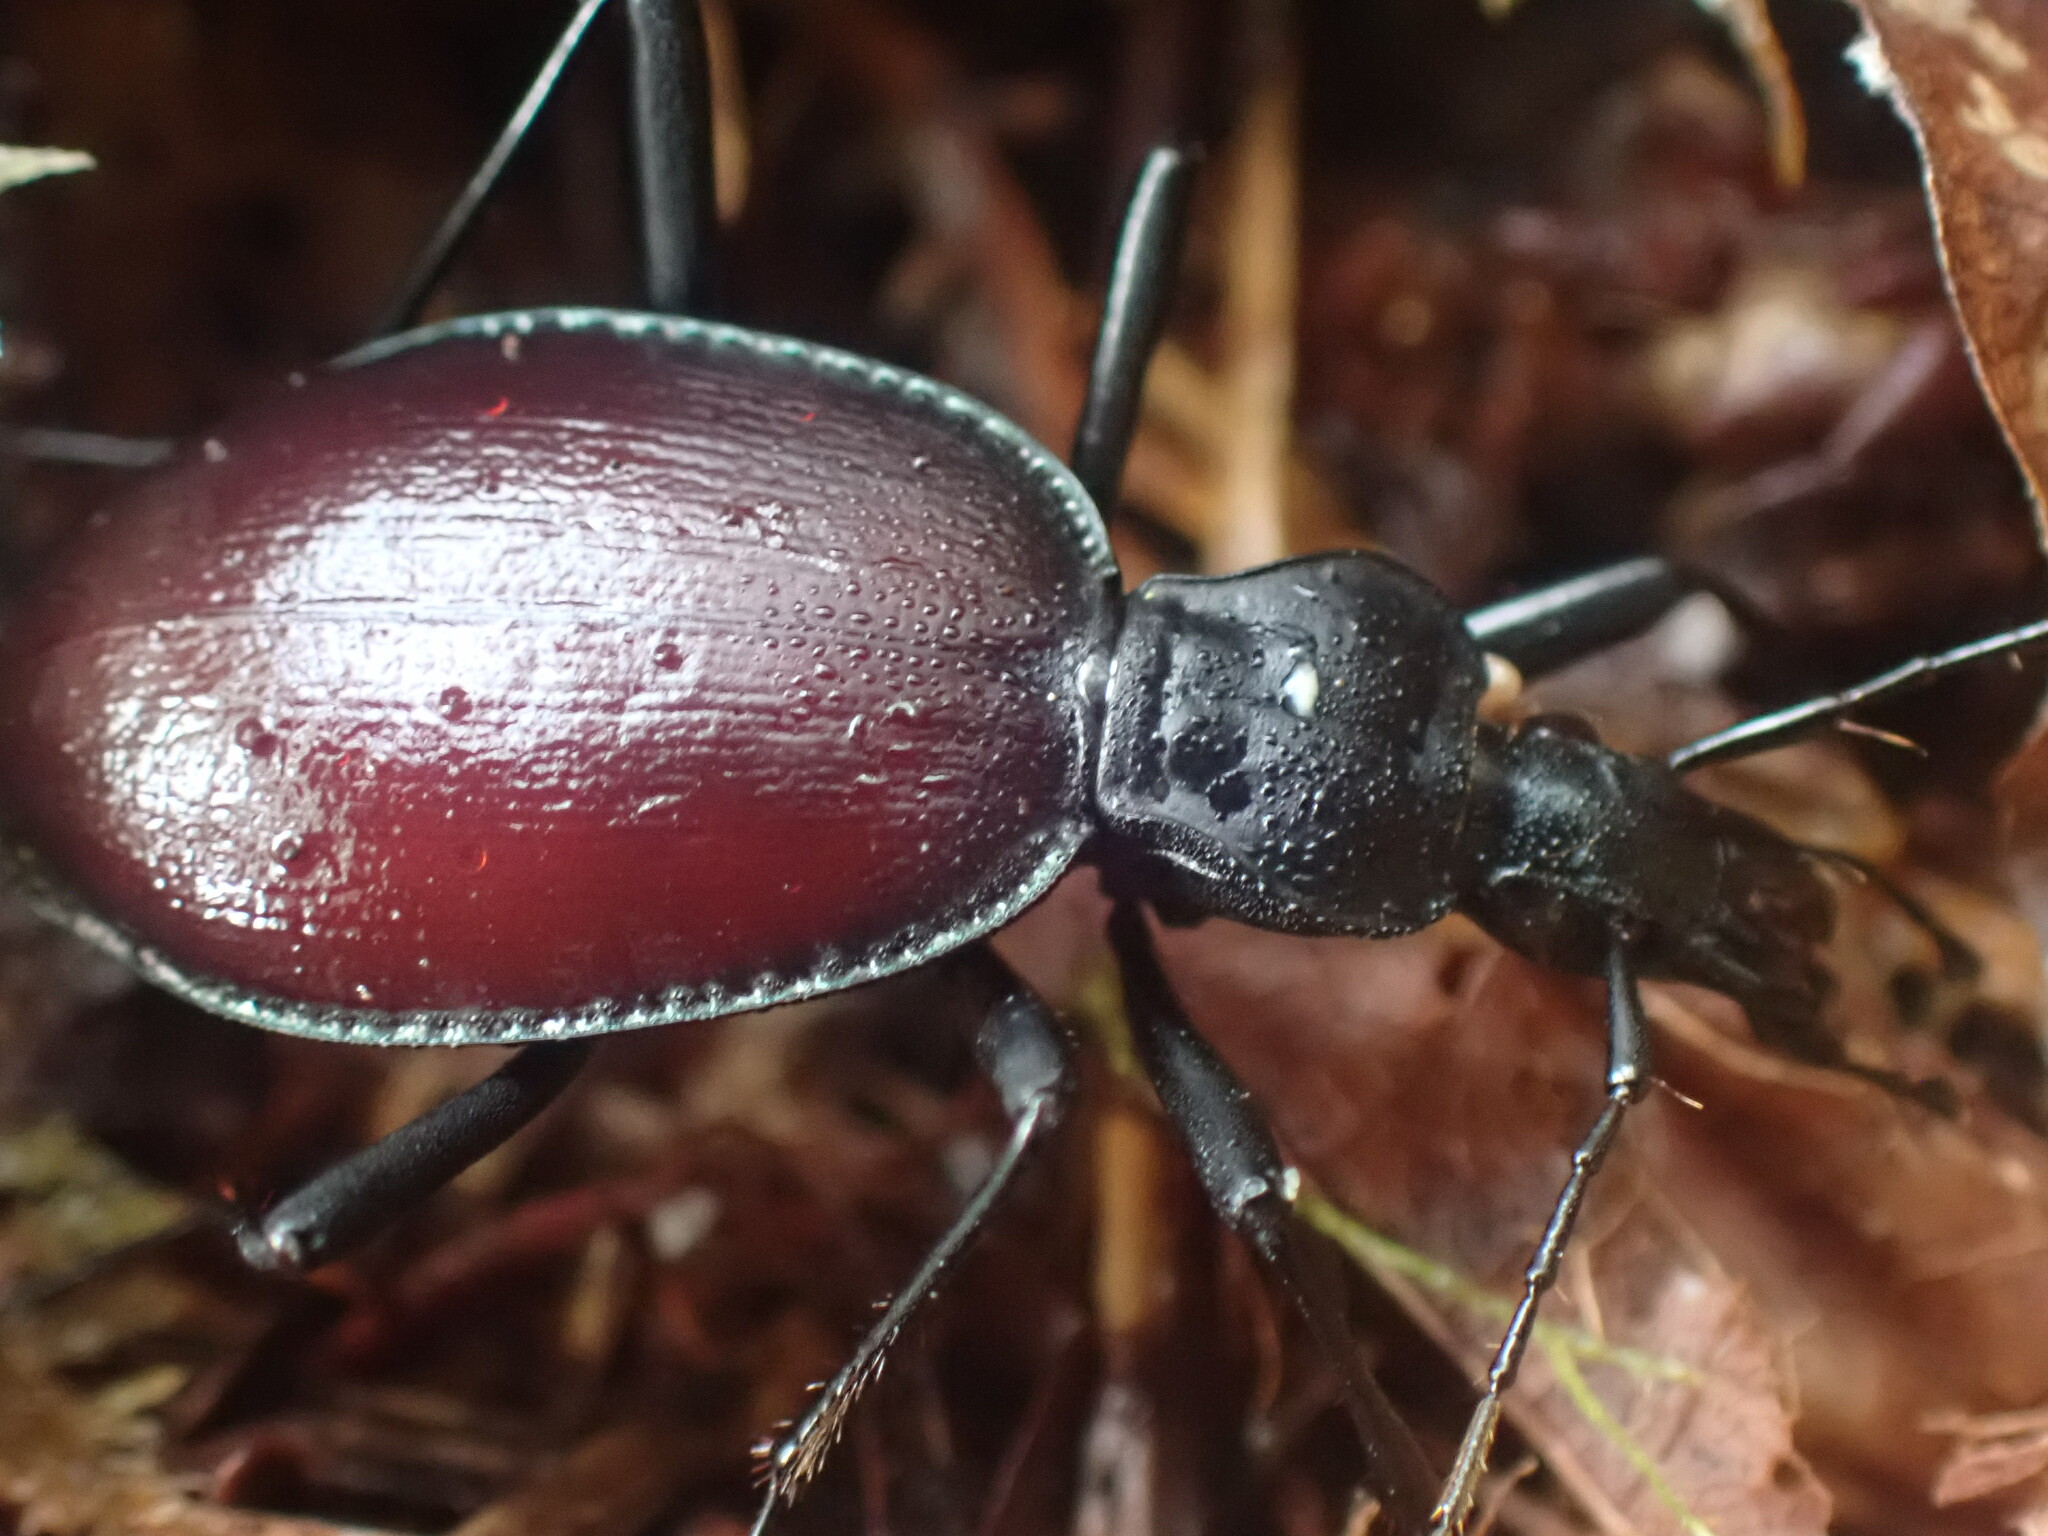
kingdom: Animalia
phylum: Arthropoda
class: Insecta
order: Coleoptera
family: Carabidae
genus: Scaphinotus
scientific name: Scaphinotus angusticollis
